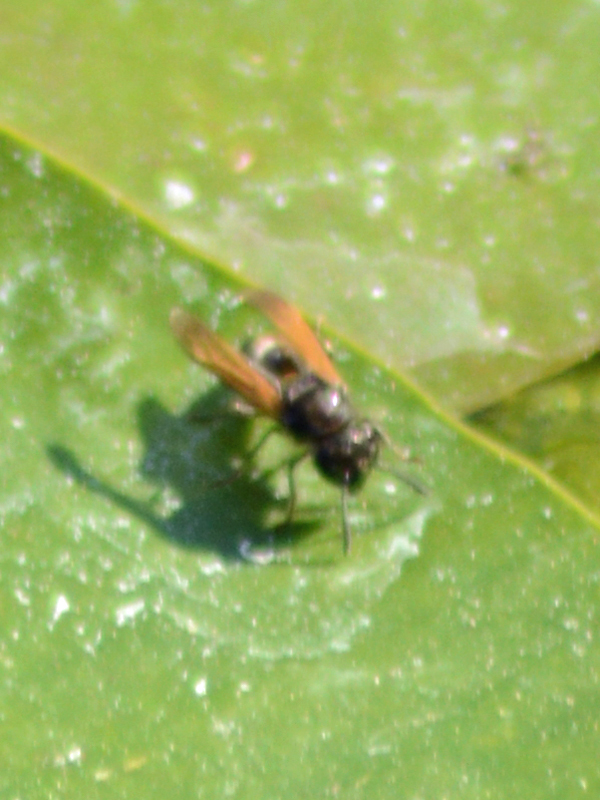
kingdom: Animalia
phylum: Arthropoda
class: Insecta
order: Hymenoptera
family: Vespidae
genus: Brachygastra
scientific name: Brachygastra mellifica
